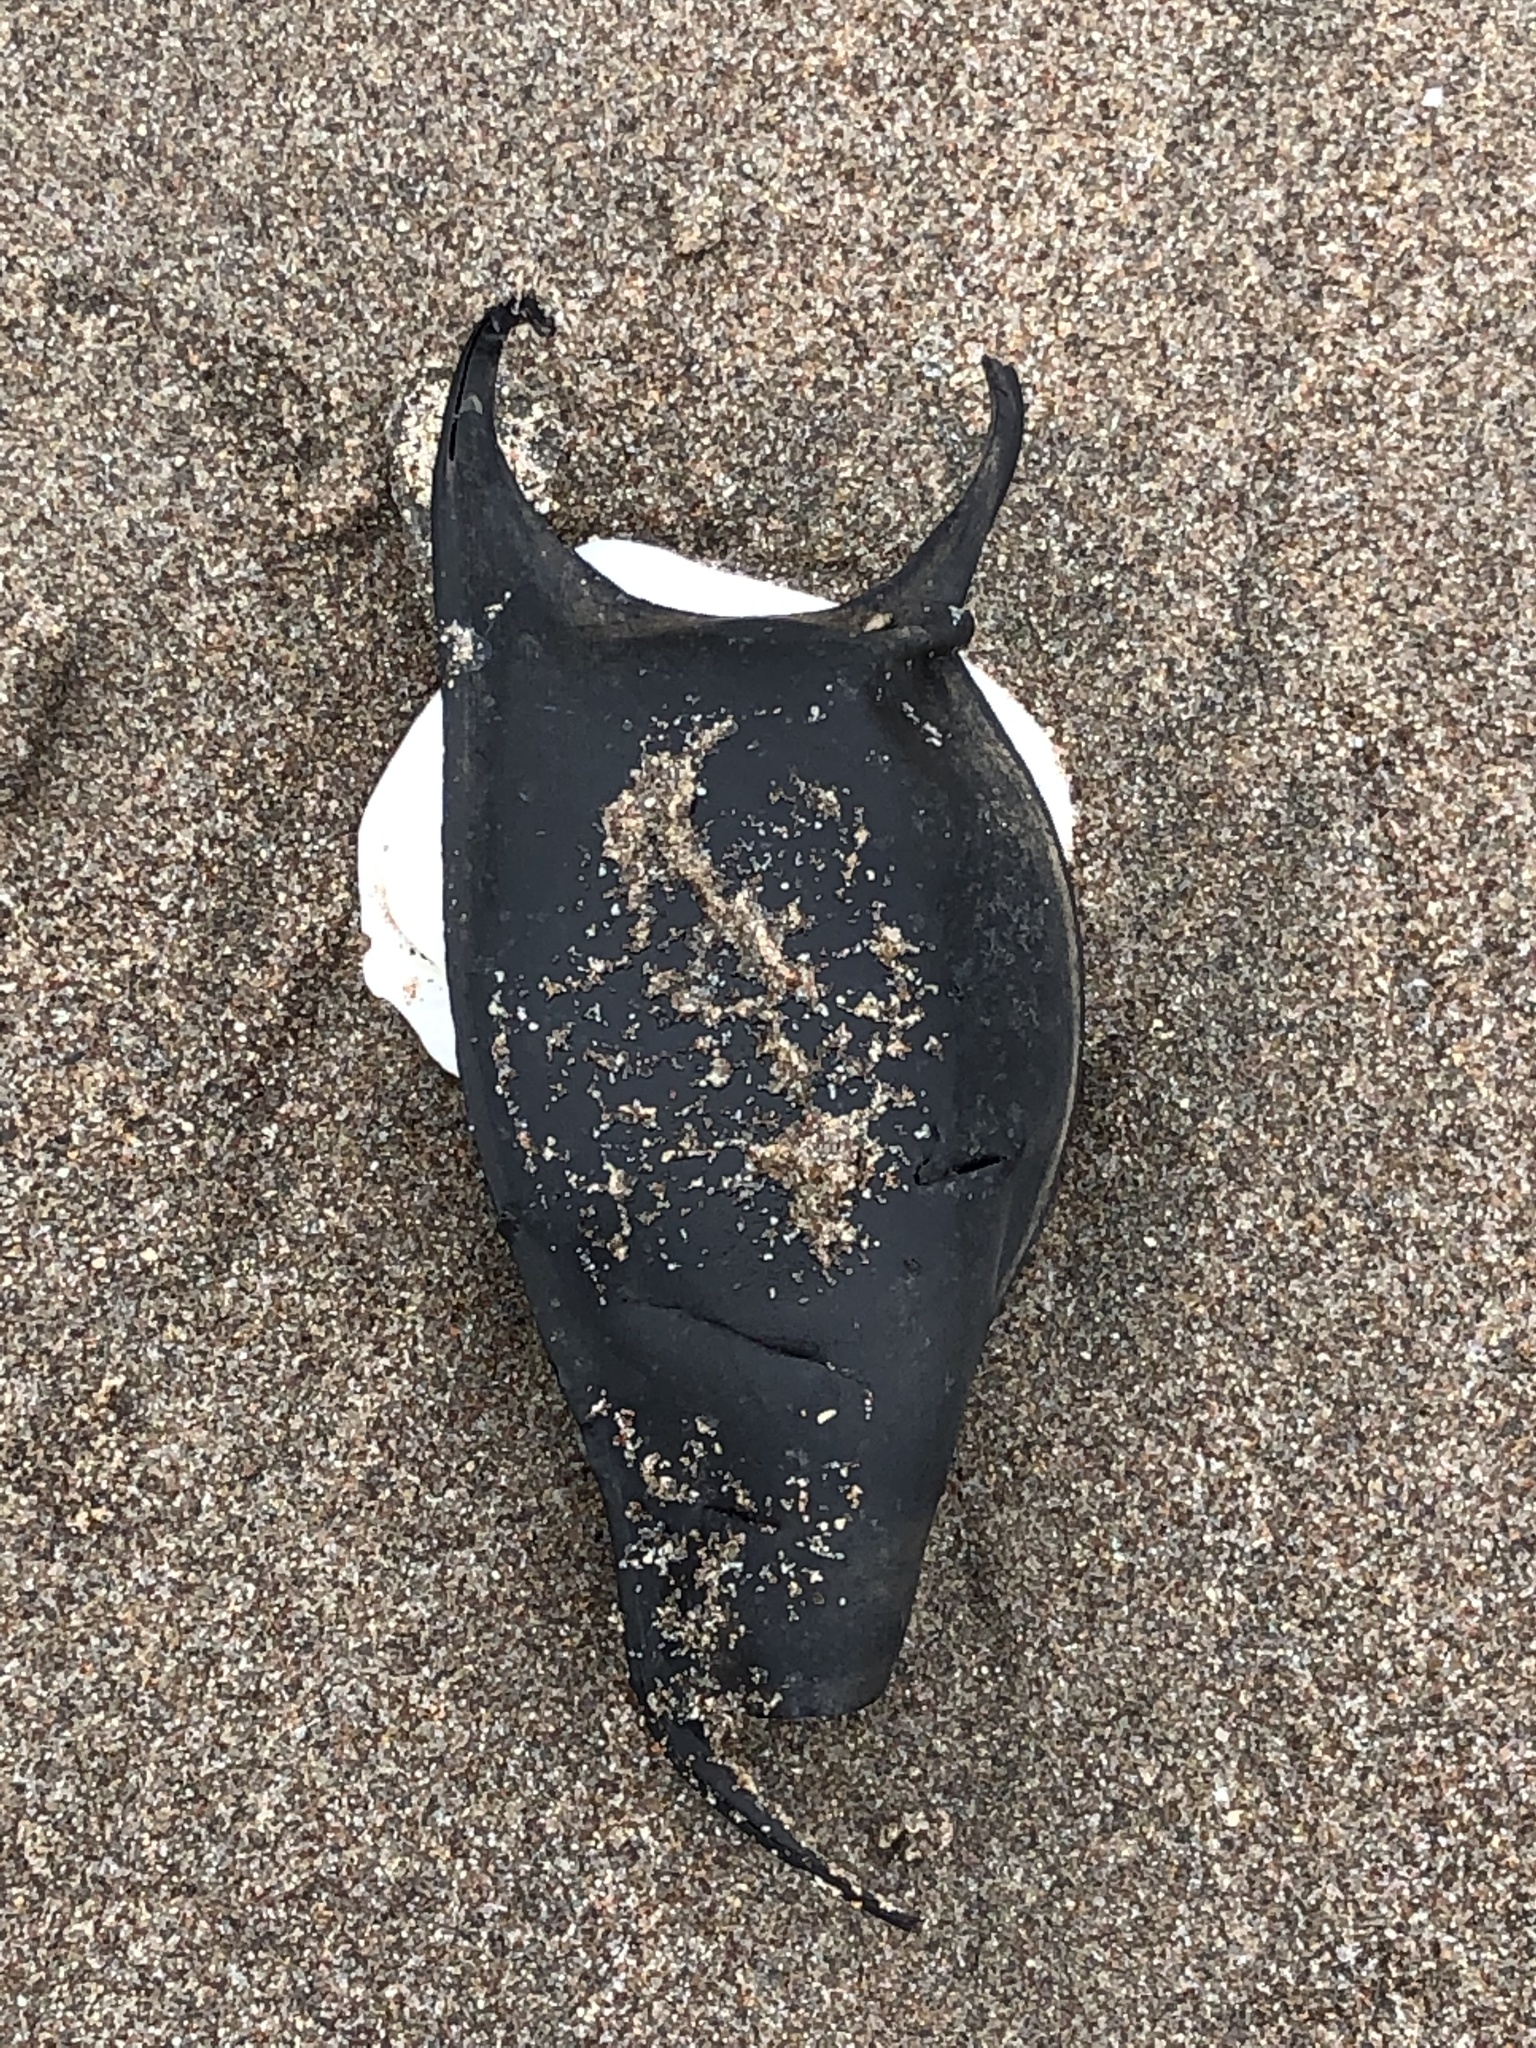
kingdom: Animalia
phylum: Chordata
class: Elasmobranchii
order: Rajiformes
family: Arhynchobatidae
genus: Sympterygia
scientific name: Sympterygia brevicaudata
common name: Shorttail fanskate
